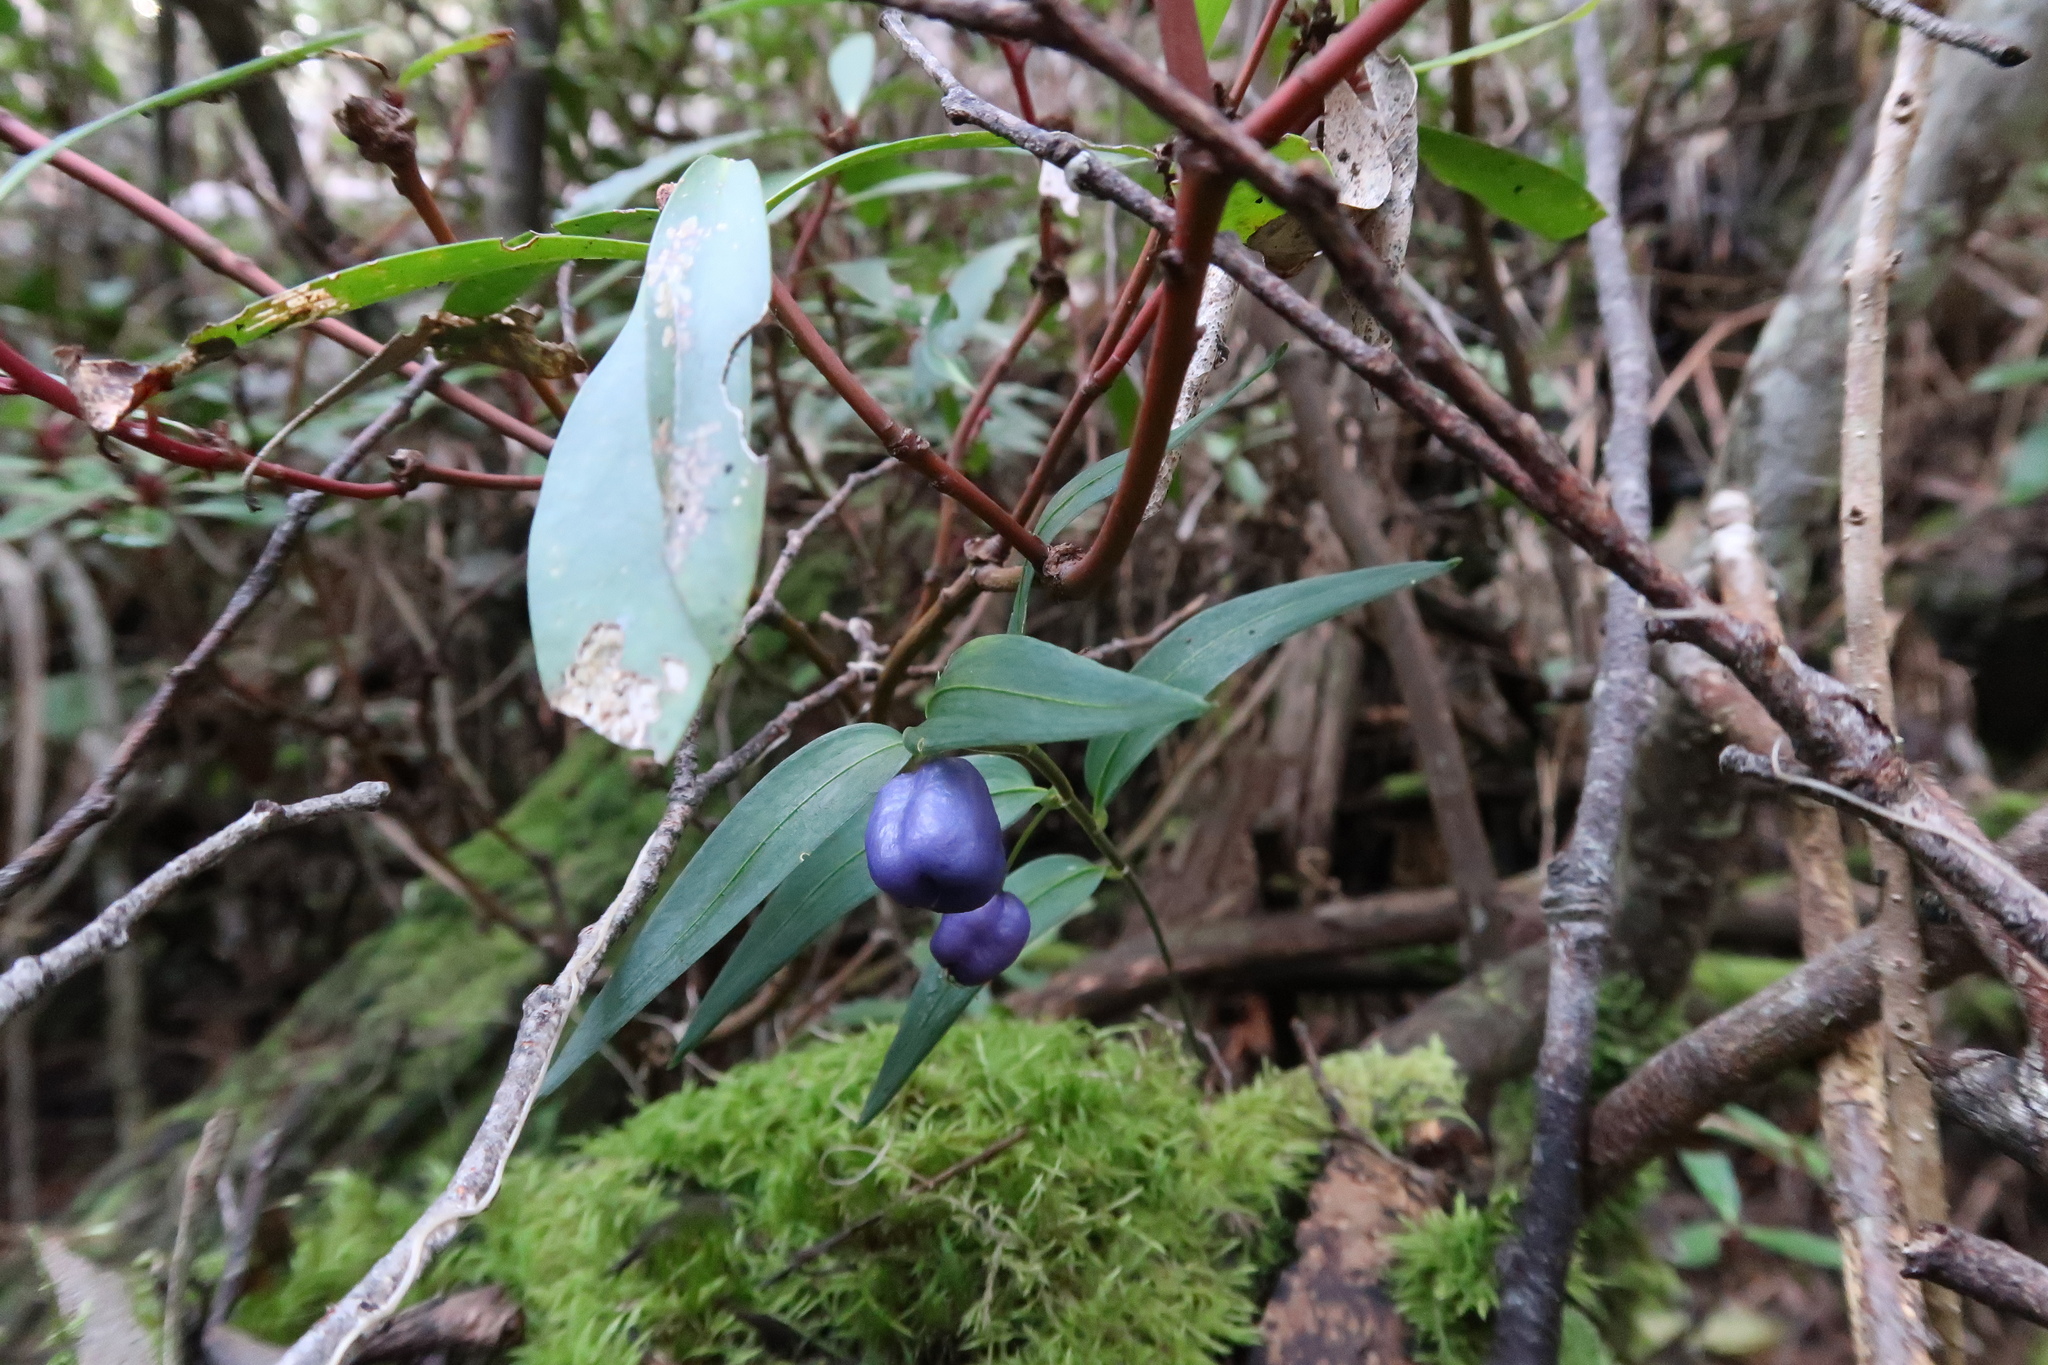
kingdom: Plantae
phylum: Tracheophyta
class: Liliopsida
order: Liliales
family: Alstroemeriaceae
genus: Drymophila
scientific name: Drymophila cyanocarpa
